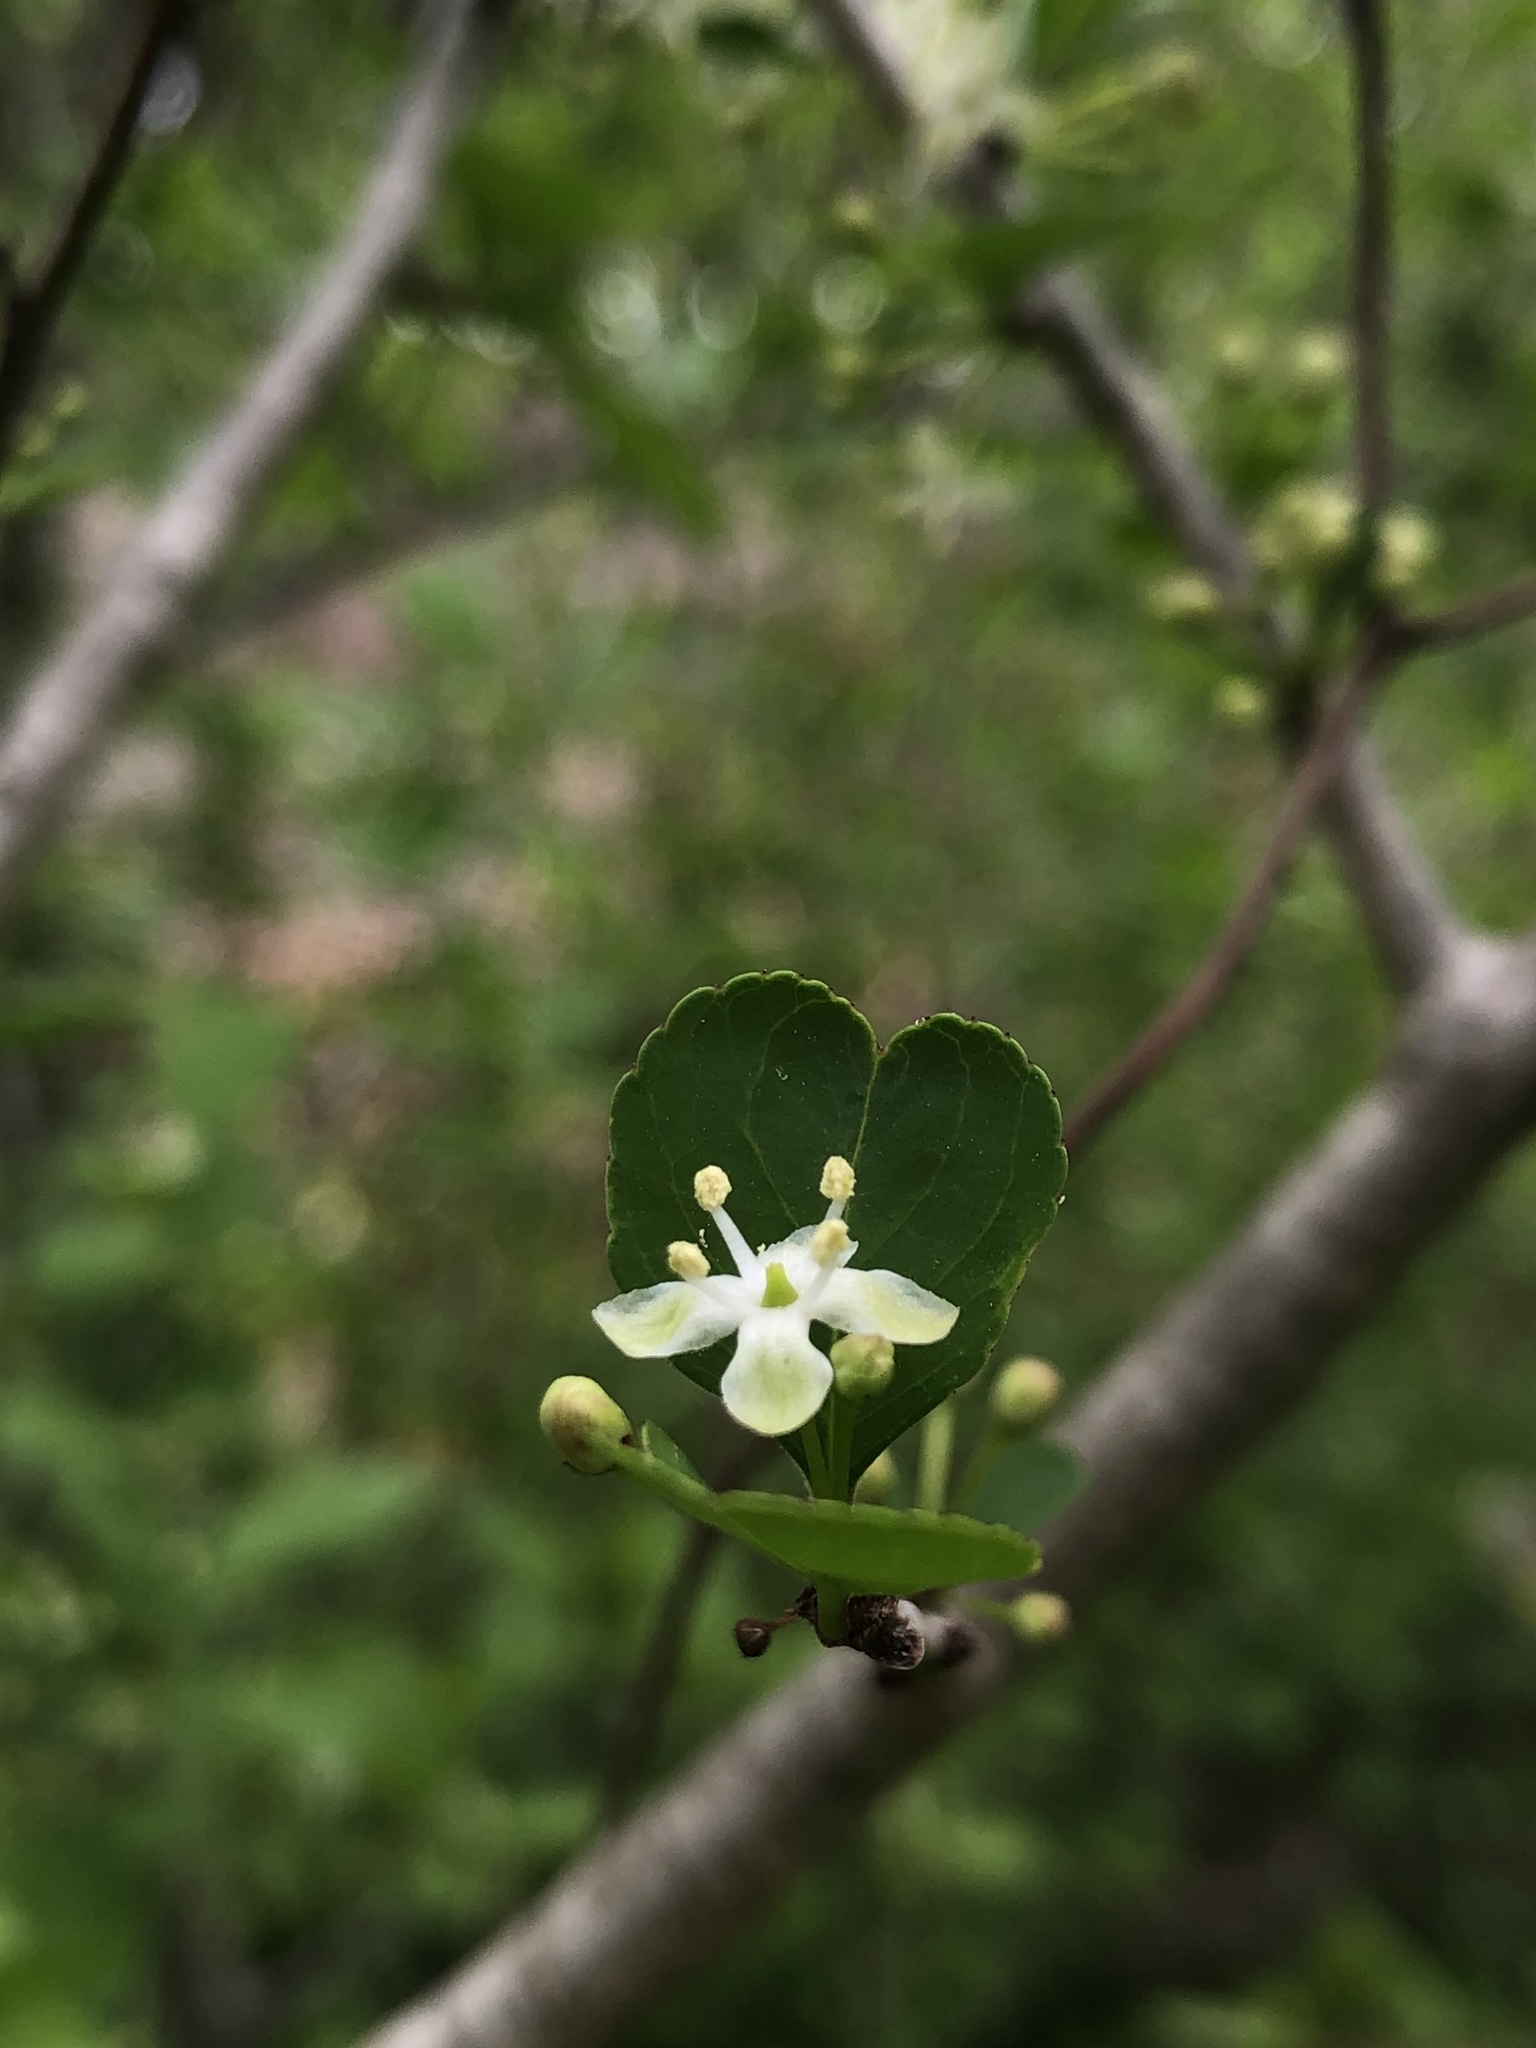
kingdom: Plantae
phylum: Tracheophyta
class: Magnoliopsida
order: Aquifoliales
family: Aquifoliaceae
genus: Ilex
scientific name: Ilex decidua
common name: Possum-haw
